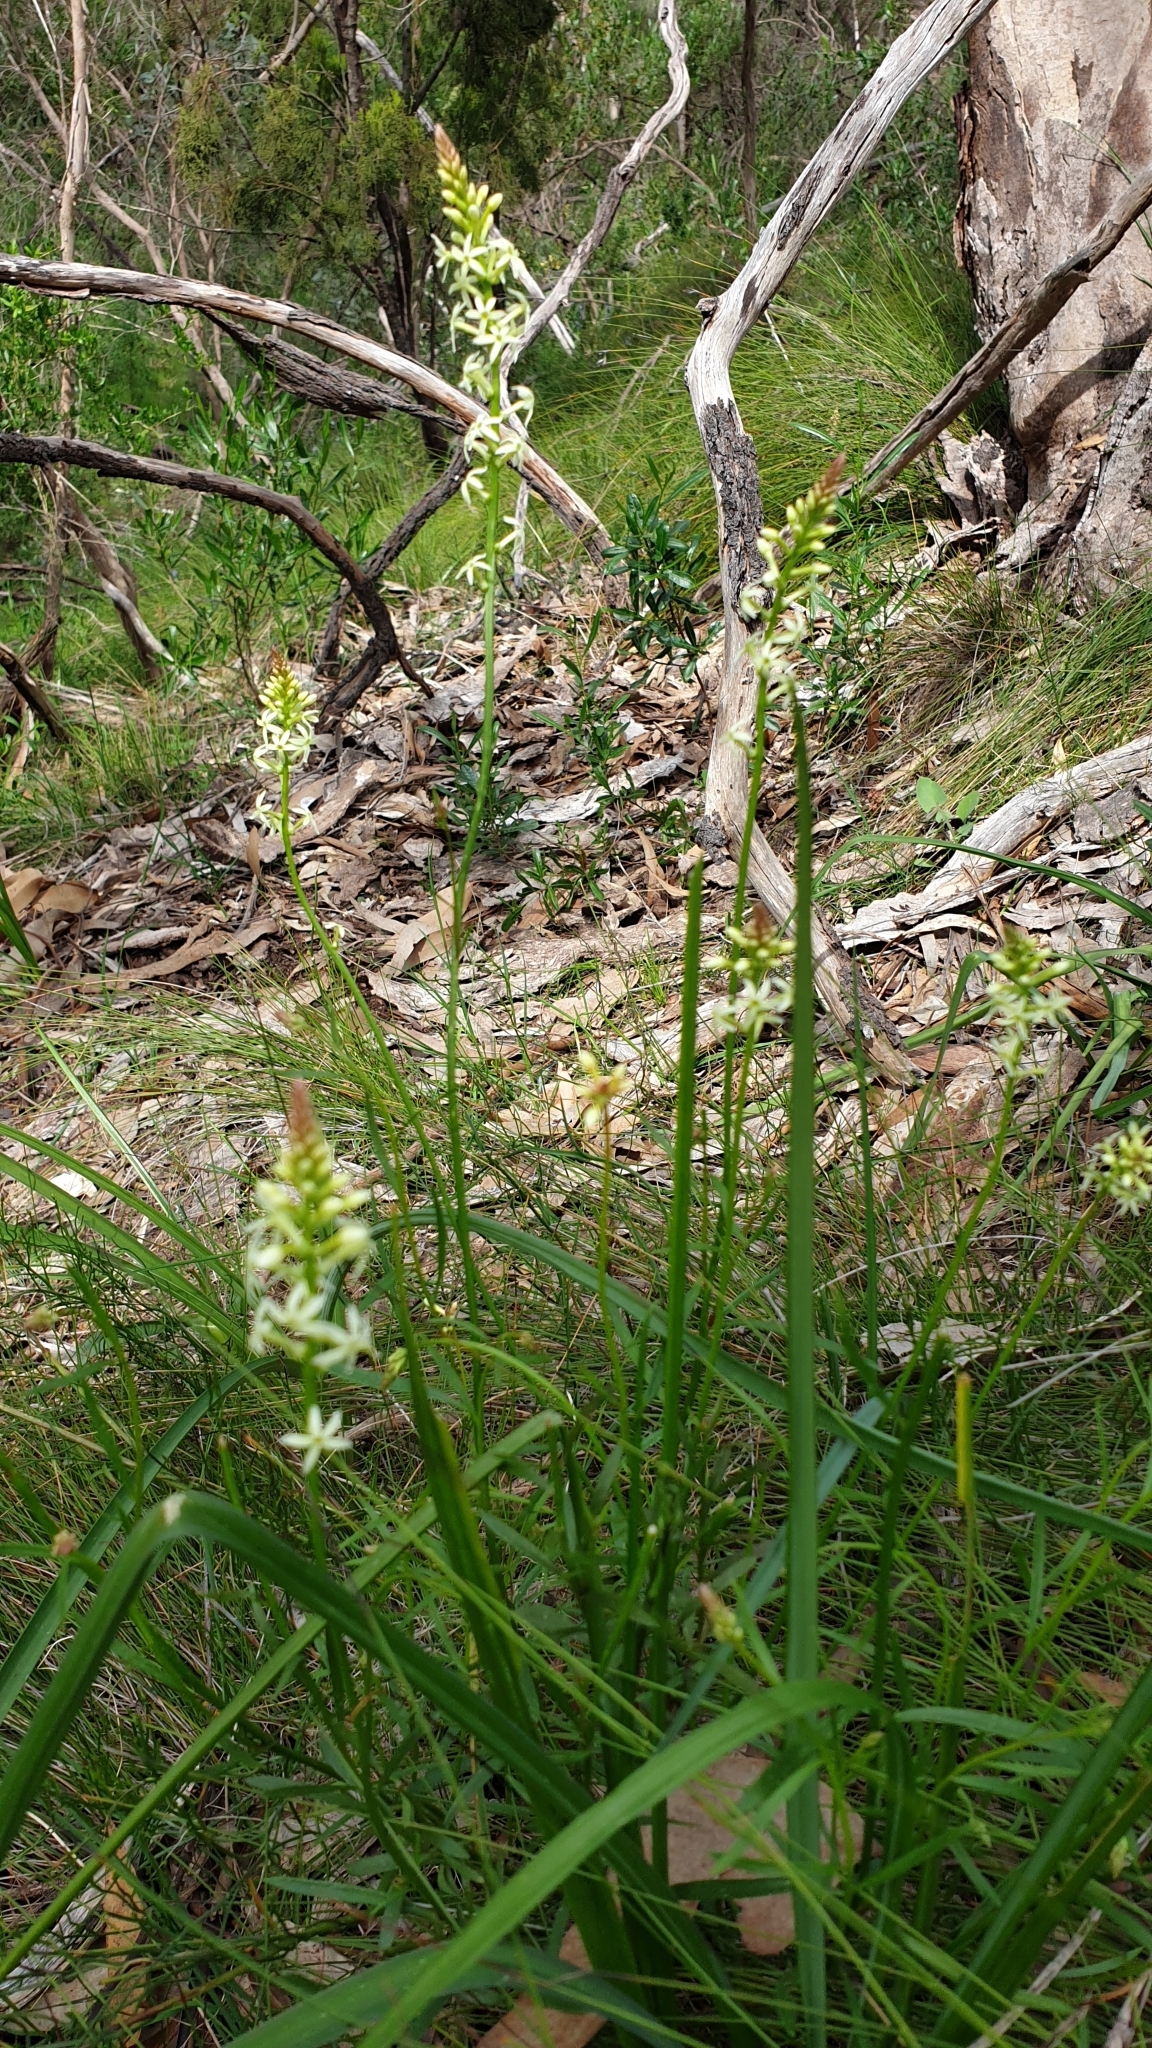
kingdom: Plantae
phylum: Tracheophyta
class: Magnoliopsida
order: Celastrales
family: Celastraceae
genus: Stackhousia
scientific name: Stackhousia monogyna
